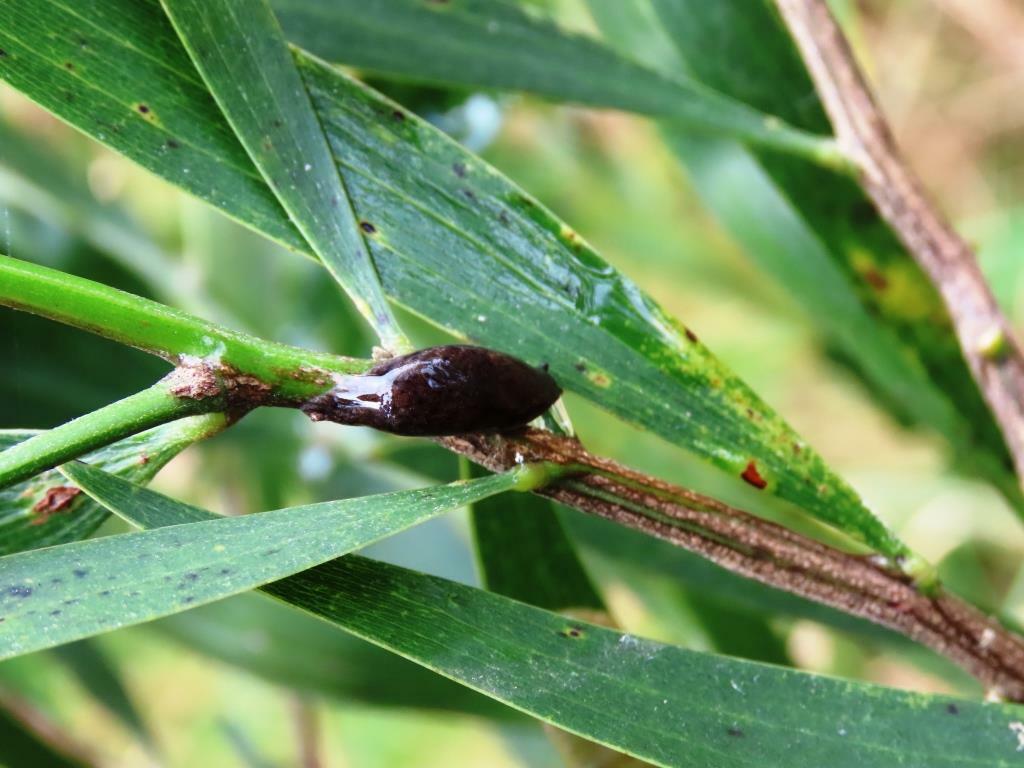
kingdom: Animalia
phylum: Mollusca
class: Gastropoda
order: Stylommatophora
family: Cystopeltidae
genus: Cystopelta
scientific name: Cystopelta
